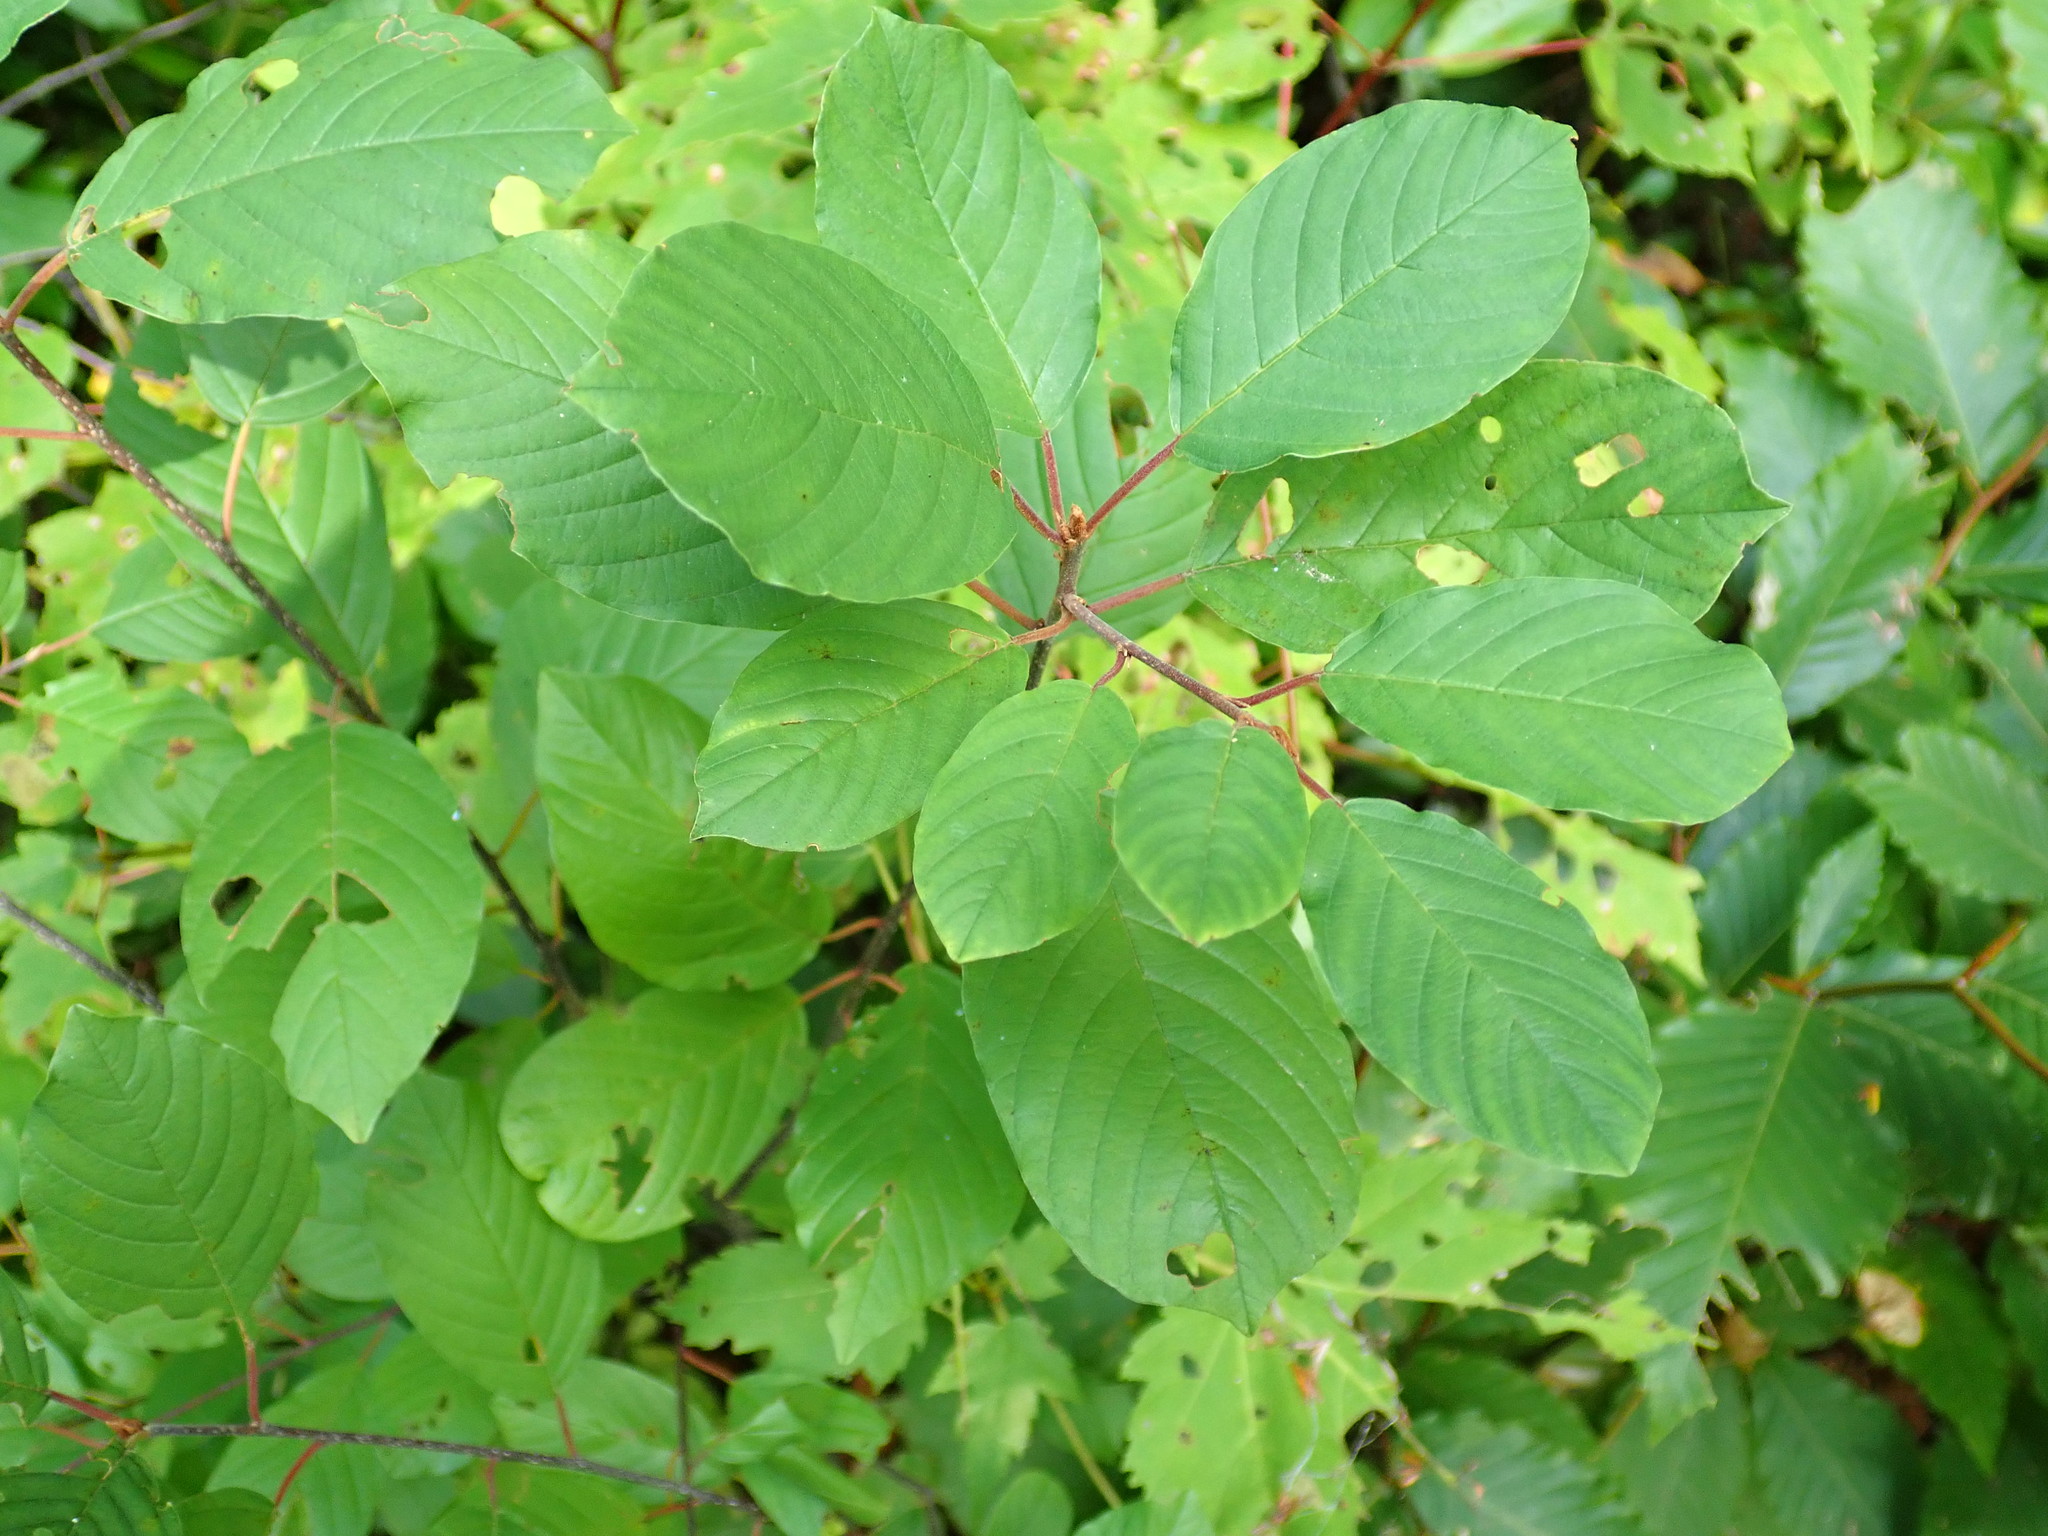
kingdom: Plantae
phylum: Tracheophyta
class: Magnoliopsida
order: Rosales
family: Rhamnaceae
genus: Frangula
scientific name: Frangula alnus
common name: Alder buckthorn
